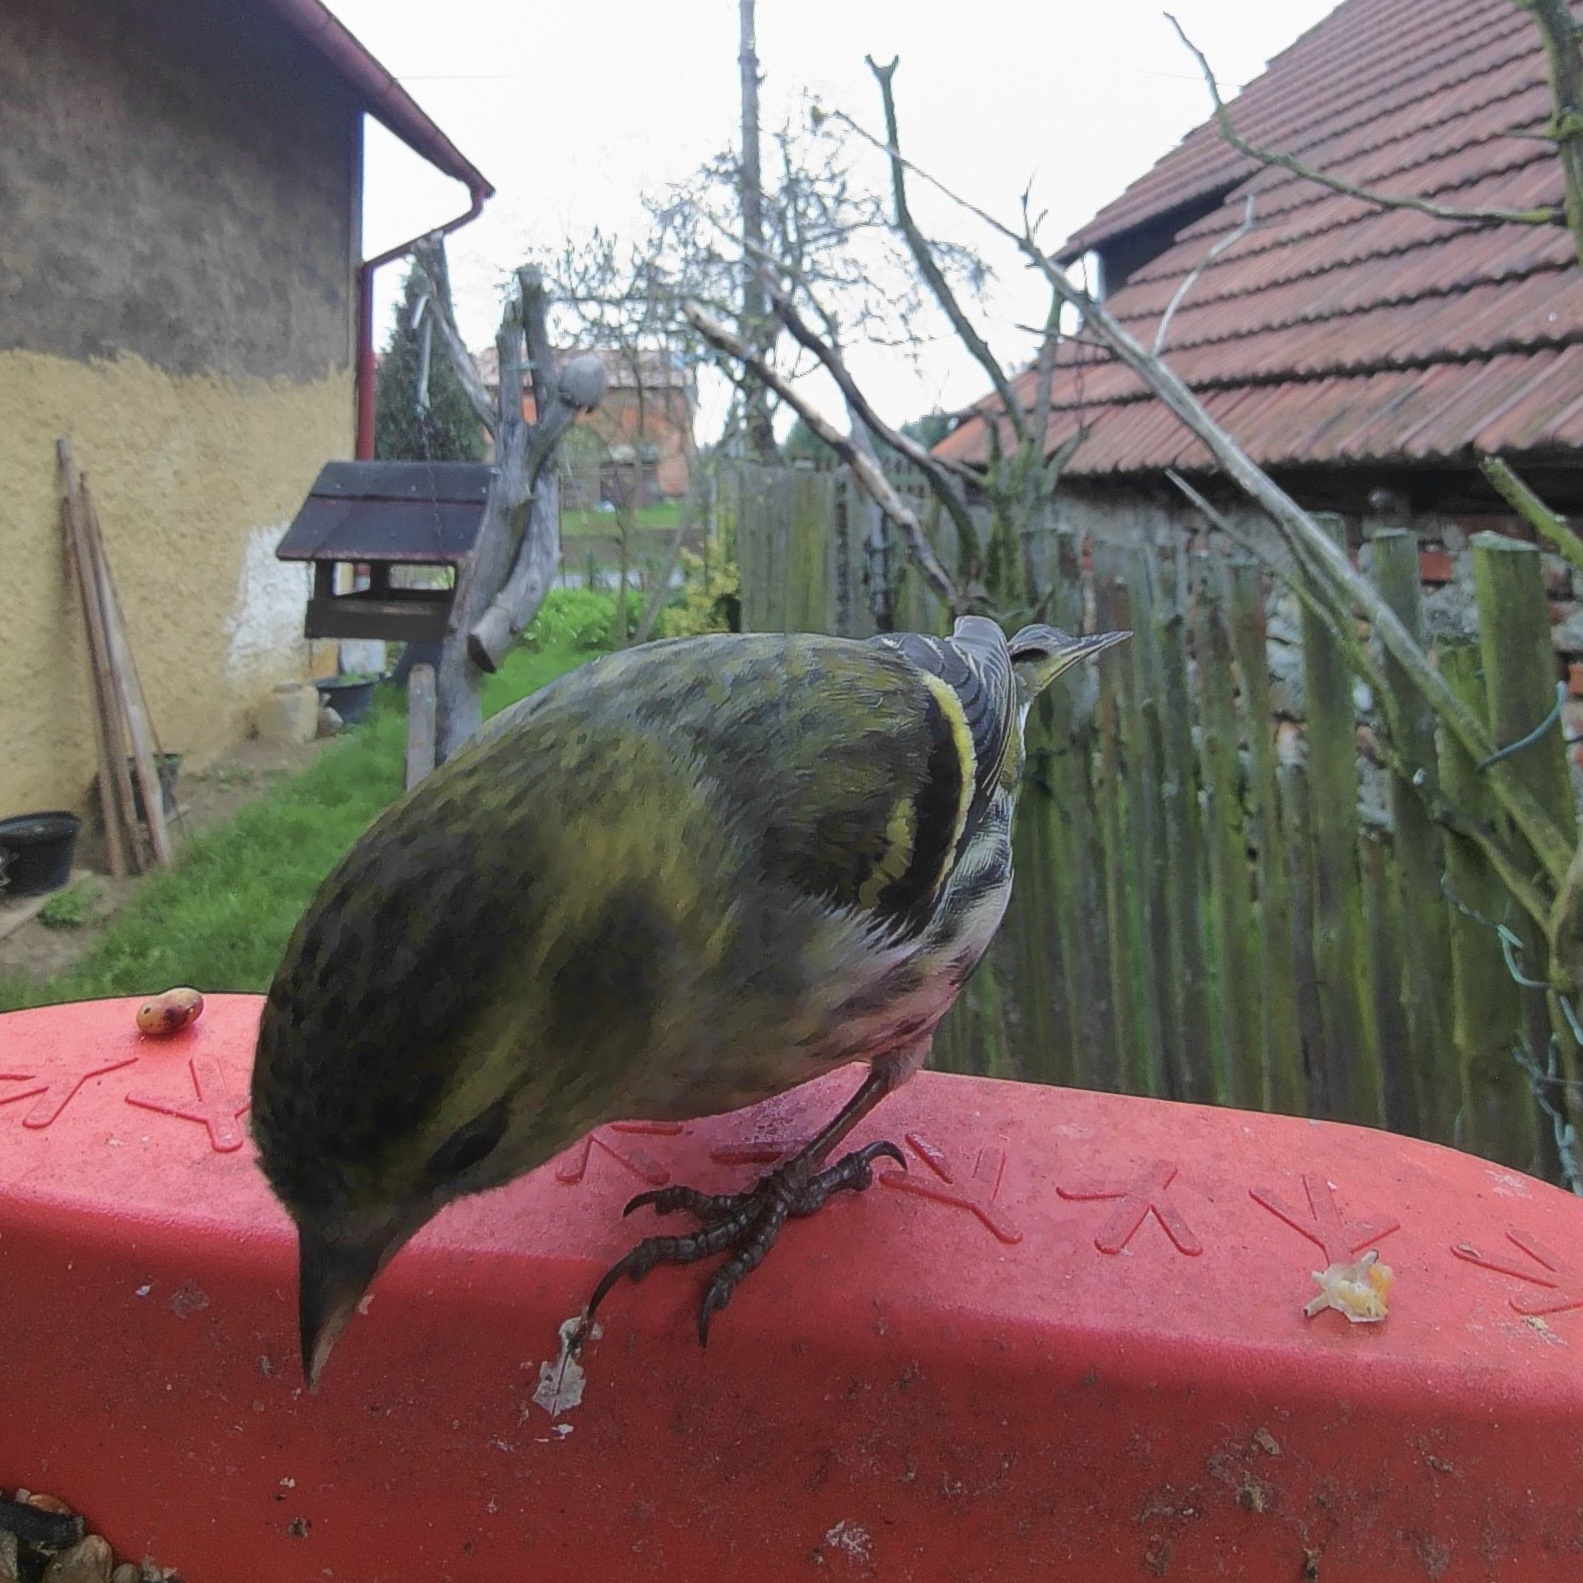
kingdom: Animalia
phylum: Chordata
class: Aves
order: Passeriformes
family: Fringillidae
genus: Spinus
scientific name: Spinus spinus
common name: Eurasian siskin
